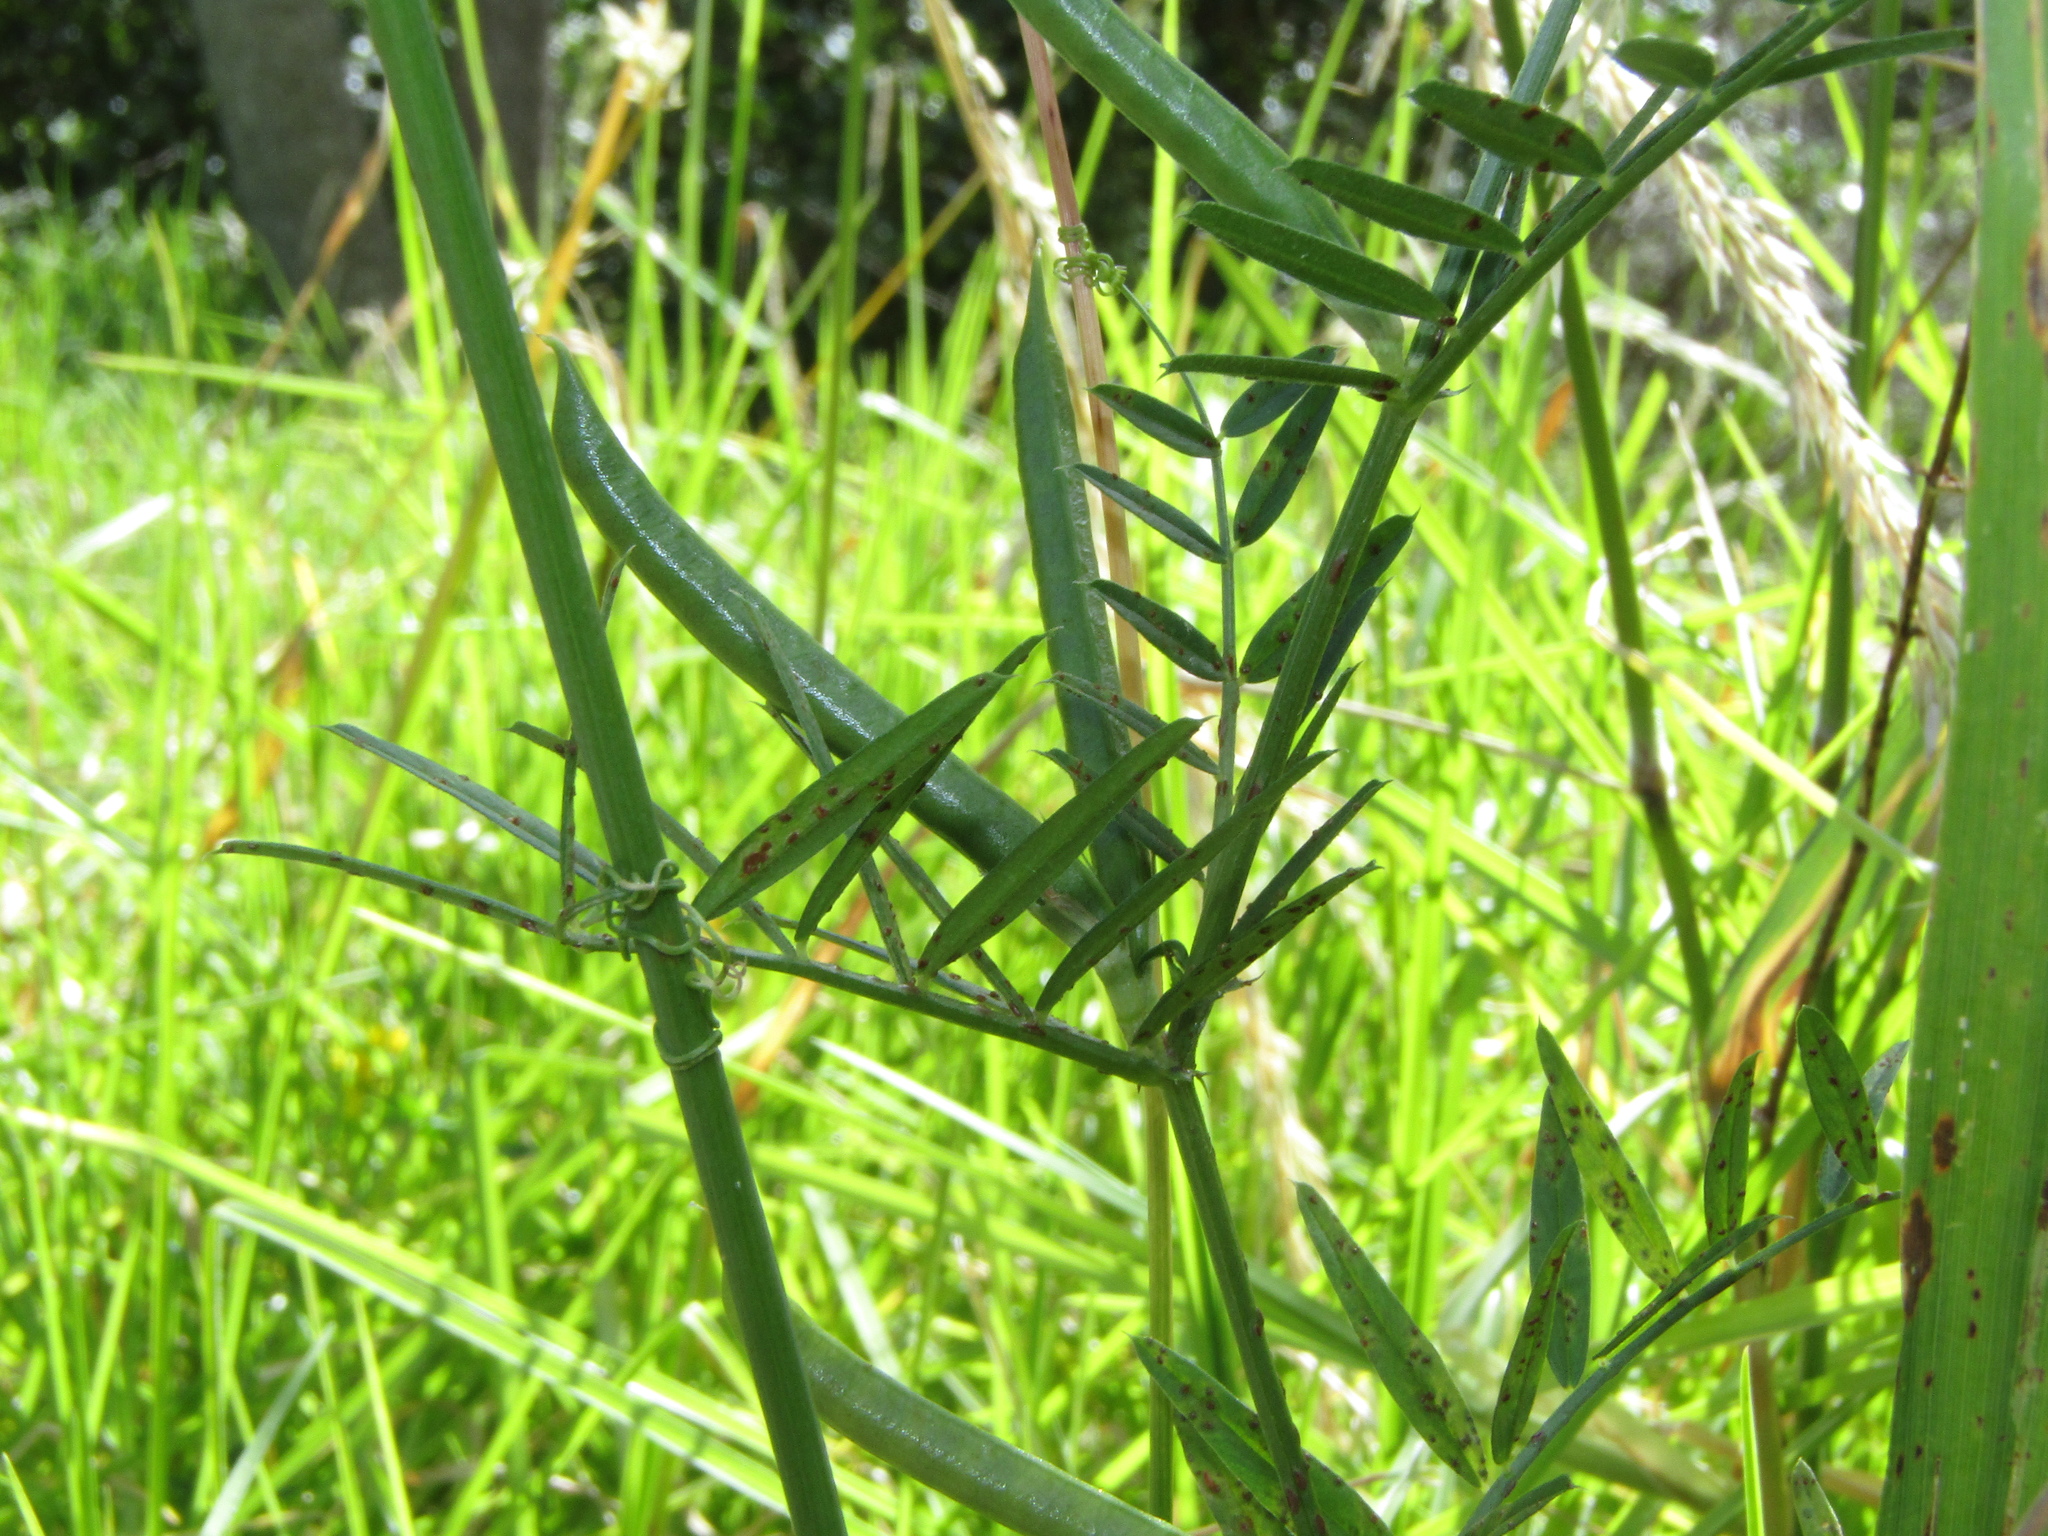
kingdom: Plantae
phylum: Tracheophyta
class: Magnoliopsida
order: Fabales
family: Fabaceae
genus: Vicia
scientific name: Vicia sativa
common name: Garden vetch
